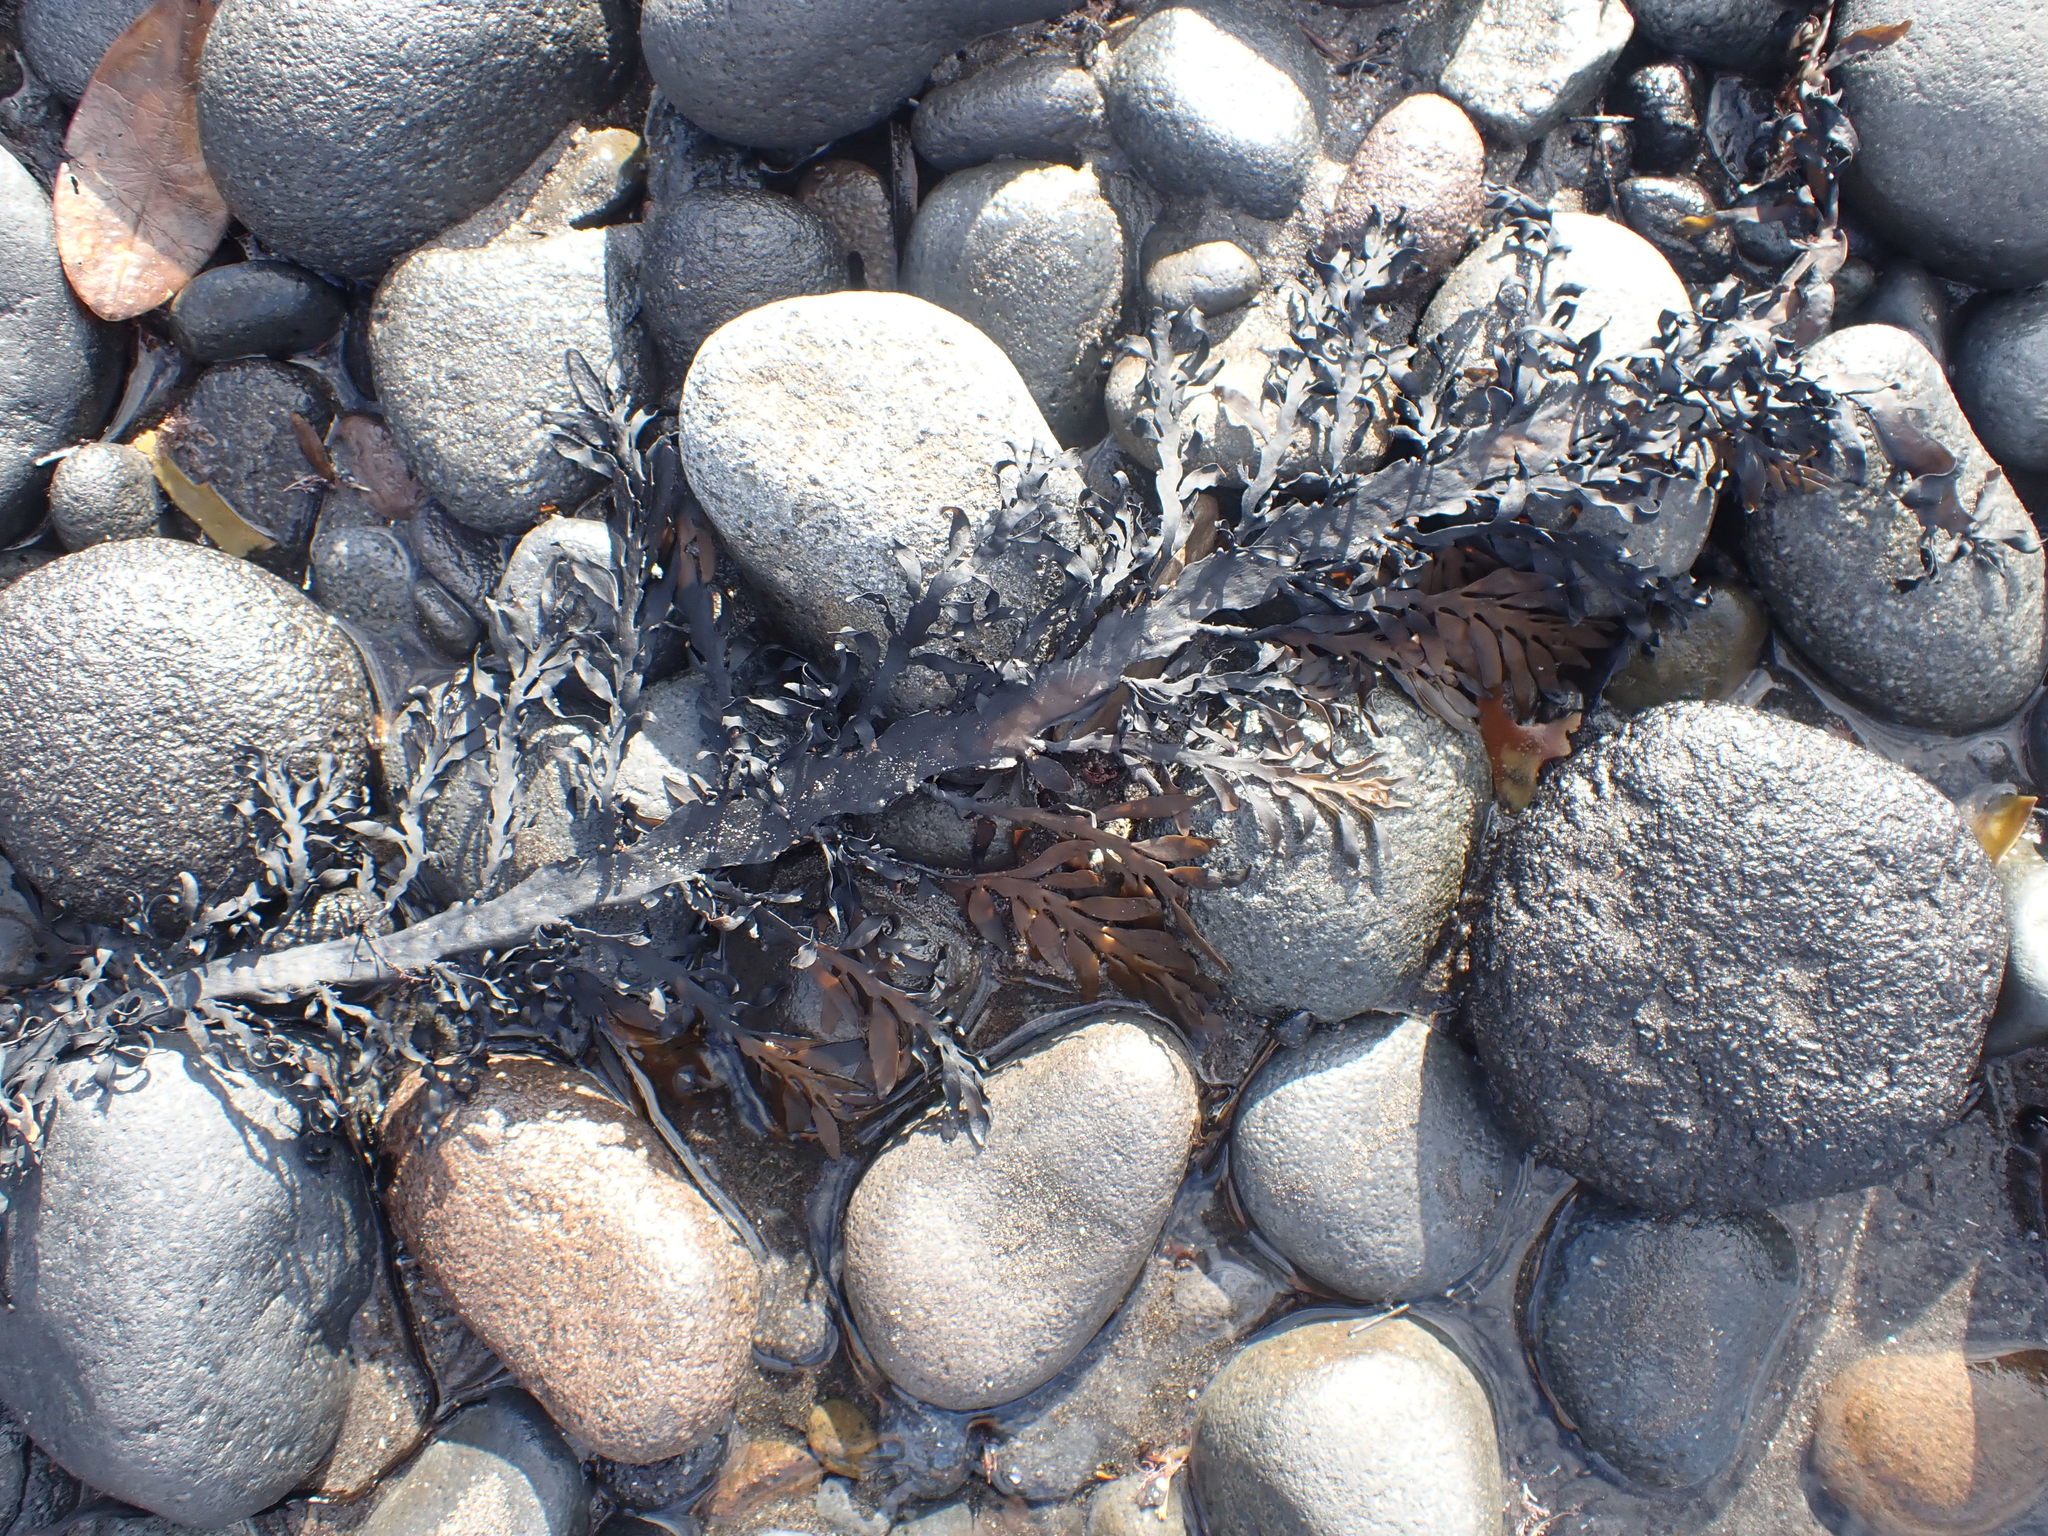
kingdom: Chromista
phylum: Ochrophyta
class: Phaeophyceae
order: Fucales
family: Sargassaceae
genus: Carpophyllum
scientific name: Carpophyllum maschalocarpum
